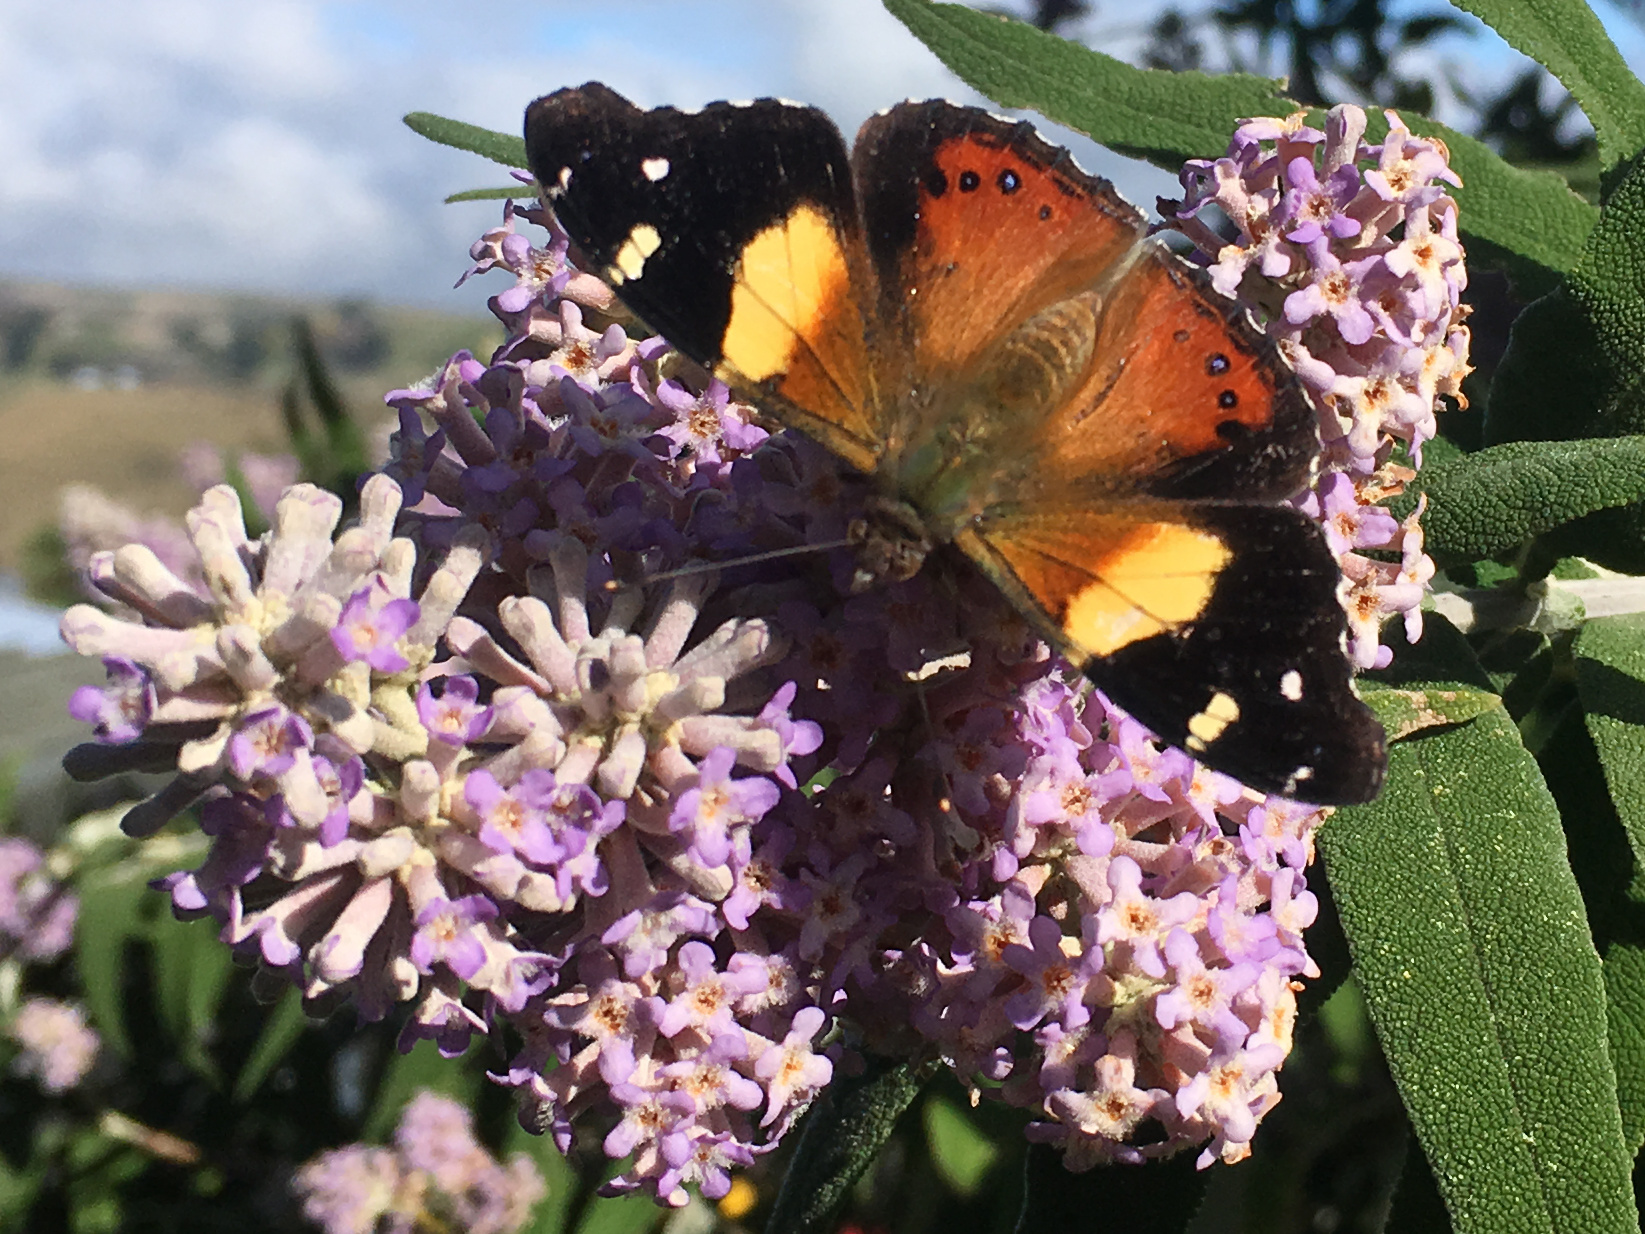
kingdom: Animalia
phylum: Arthropoda
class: Insecta
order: Lepidoptera
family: Nymphalidae
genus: Vanessa
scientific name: Vanessa itea
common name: Yellow admiral
